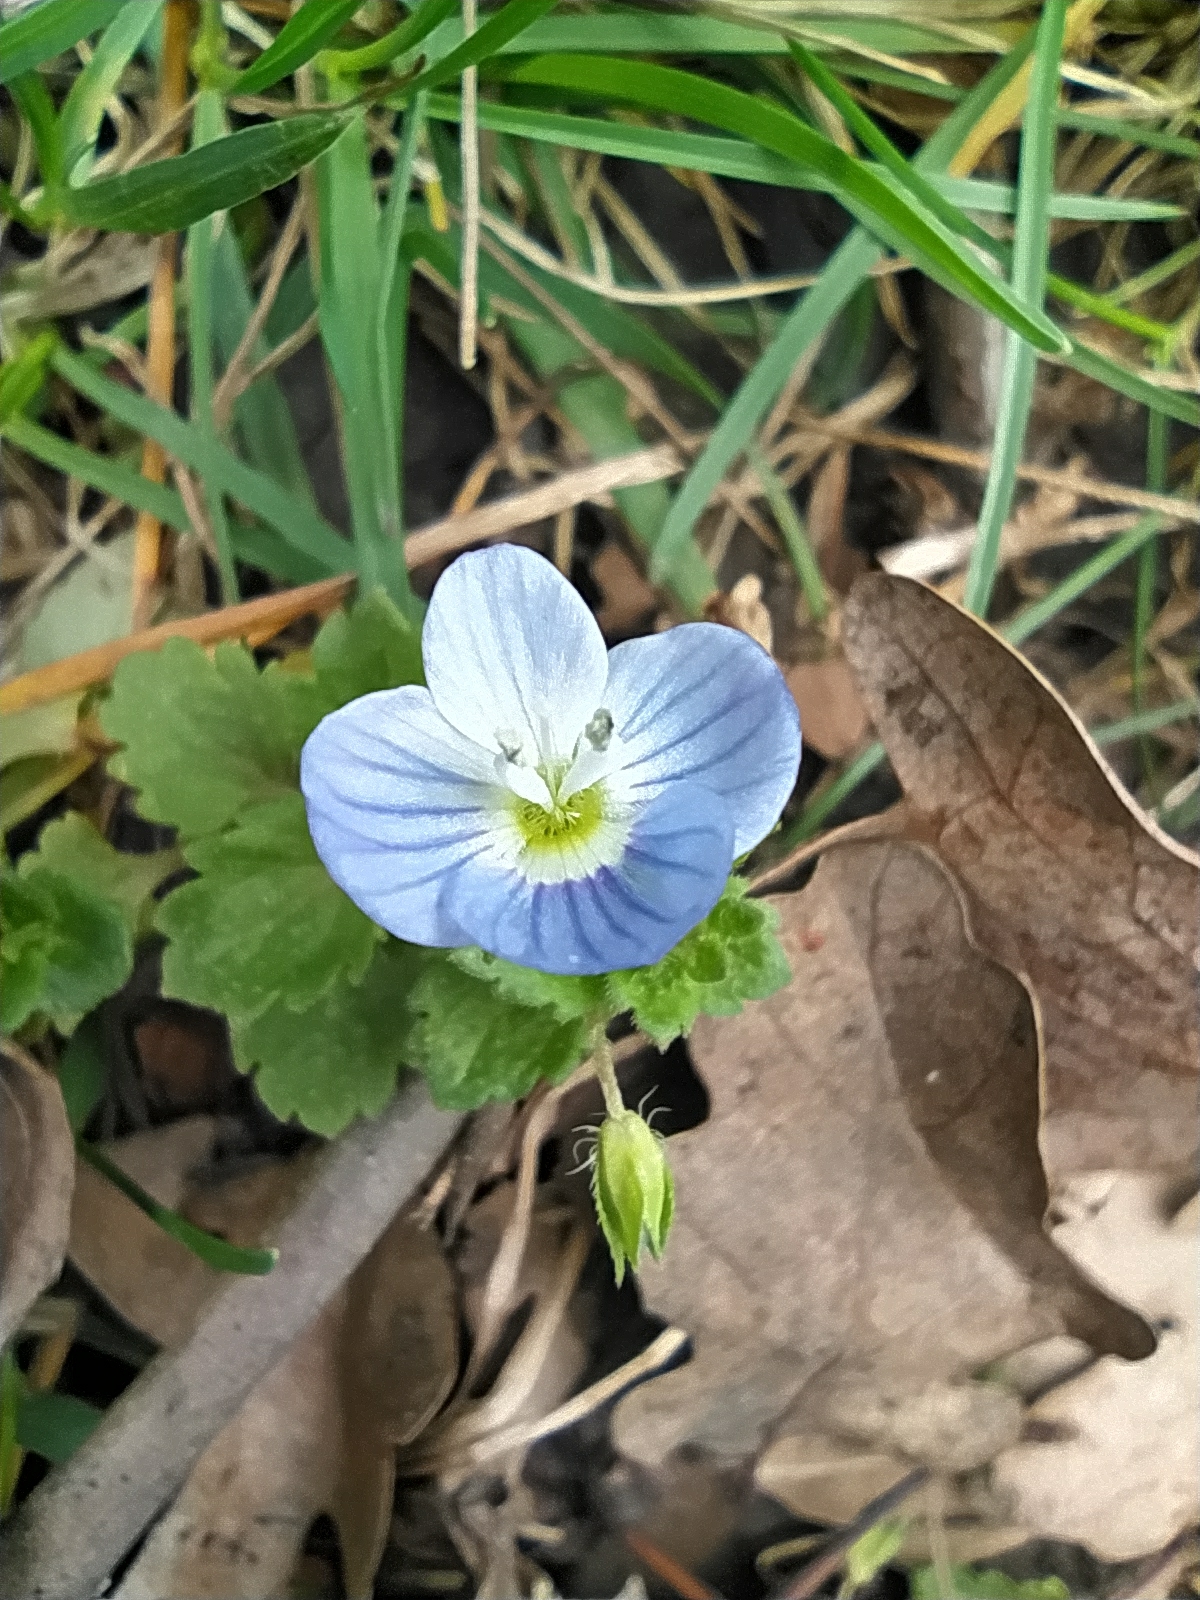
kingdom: Plantae
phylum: Tracheophyta
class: Magnoliopsida
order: Lamiales
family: Plantaginaceae
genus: Veronica
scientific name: Veronica persica
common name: Common field-speedwell
